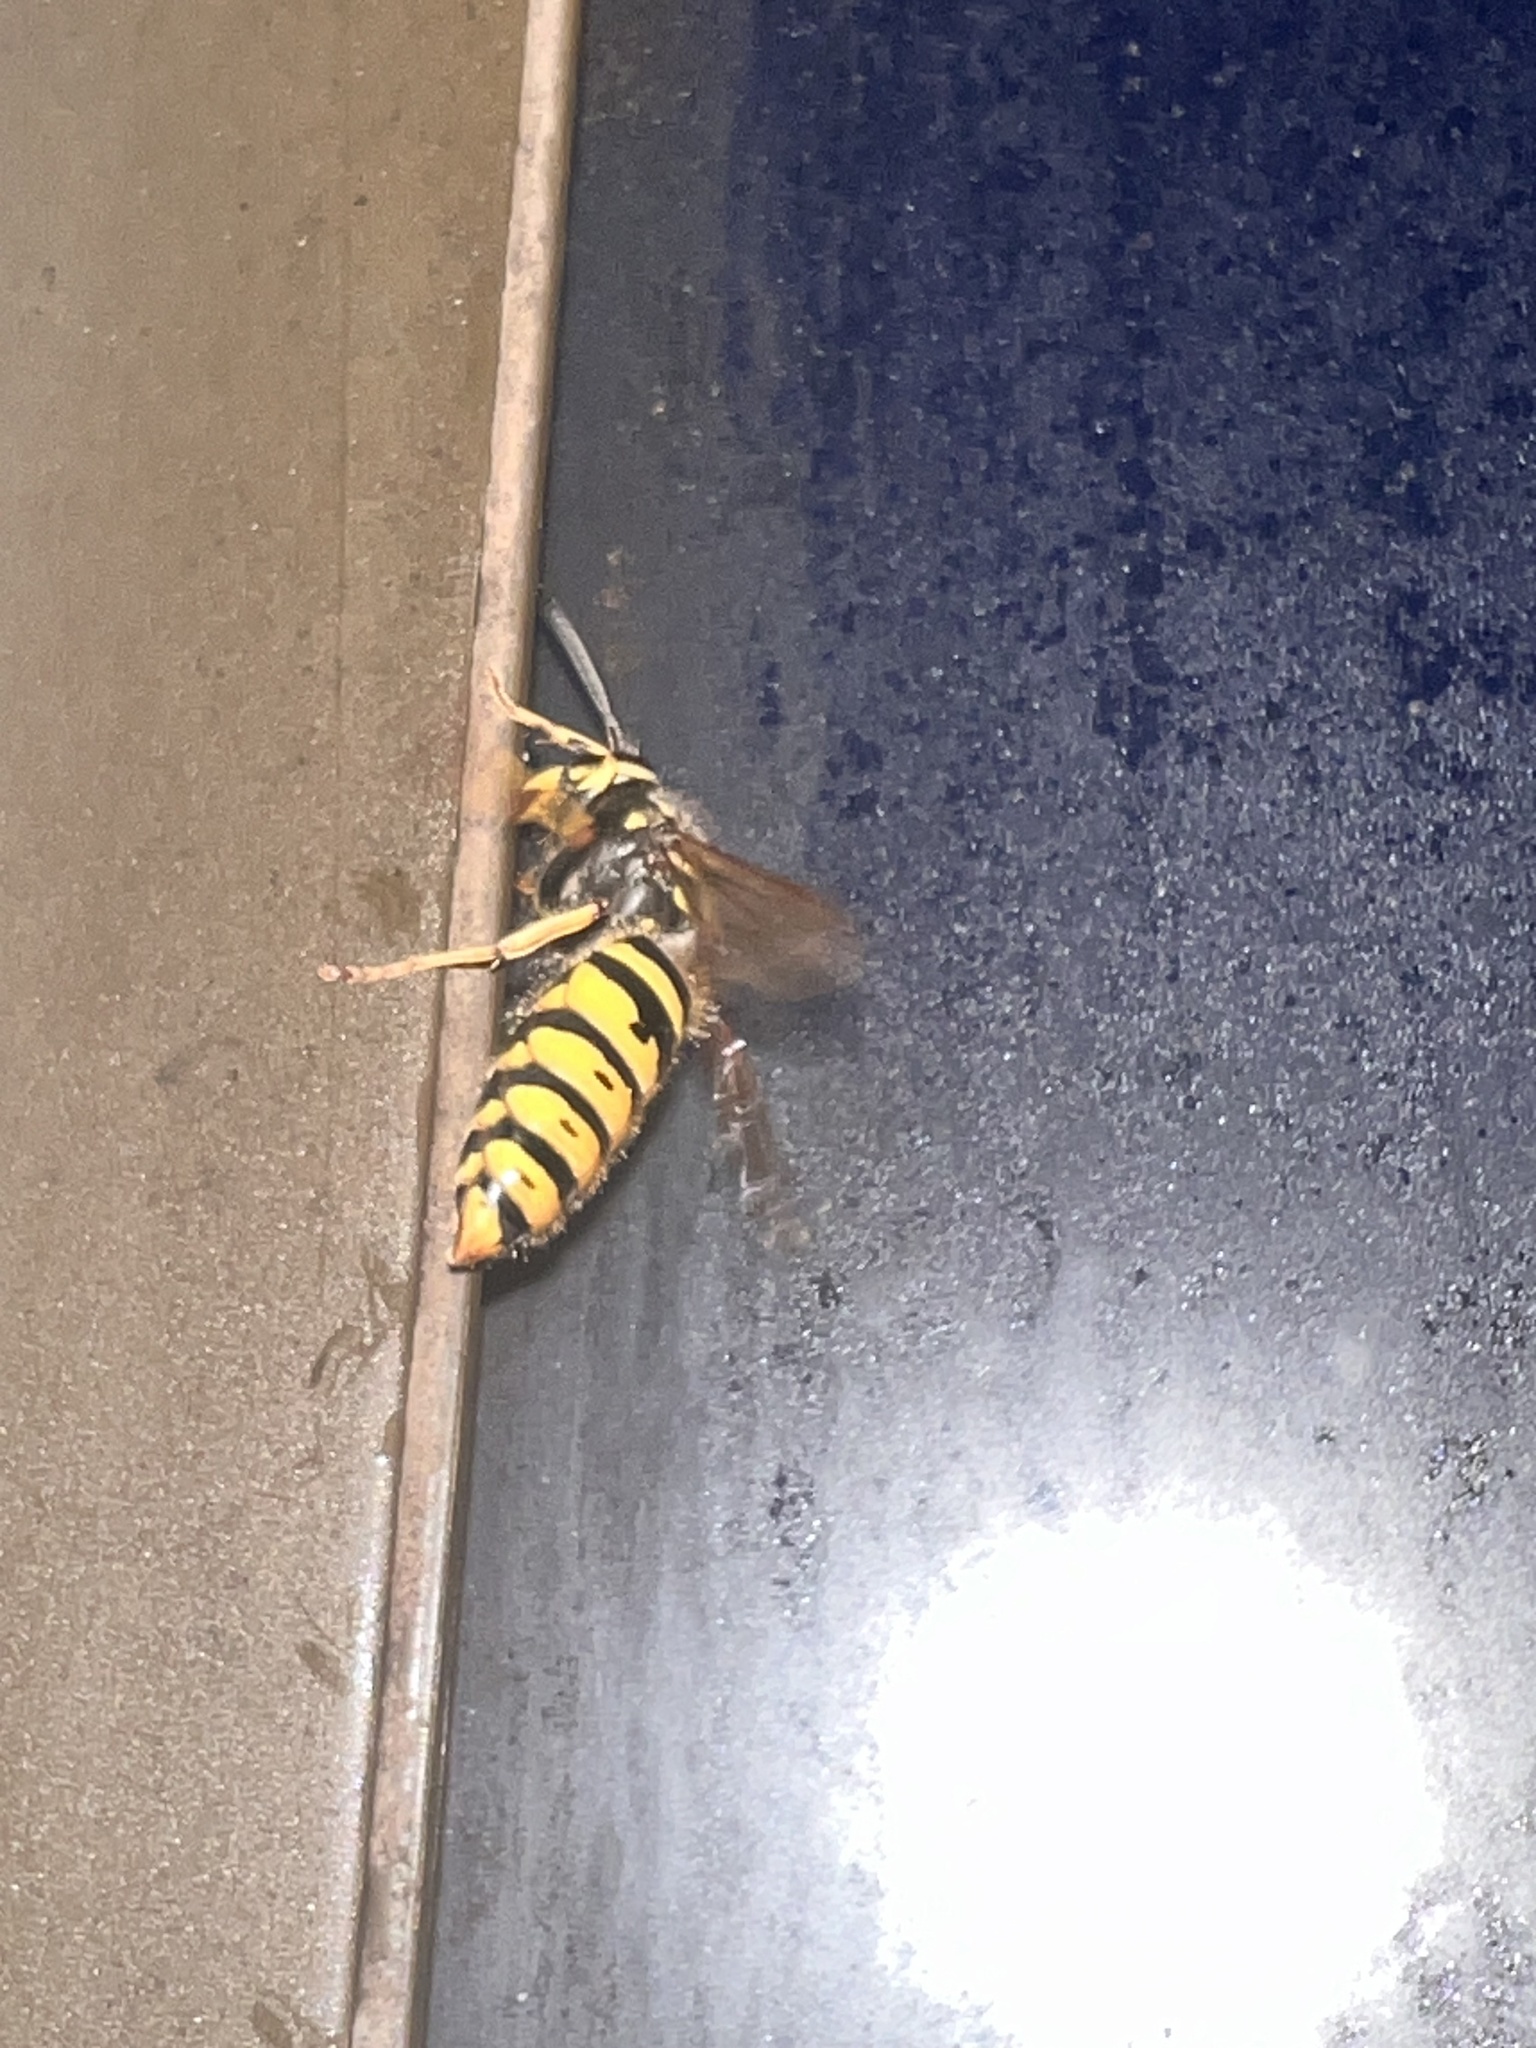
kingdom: Animalia
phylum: Arthropoda
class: Insecta
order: Hymenoptera
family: Vespidae
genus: Vespula
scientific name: Vespula vulgaris
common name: Common wasp
